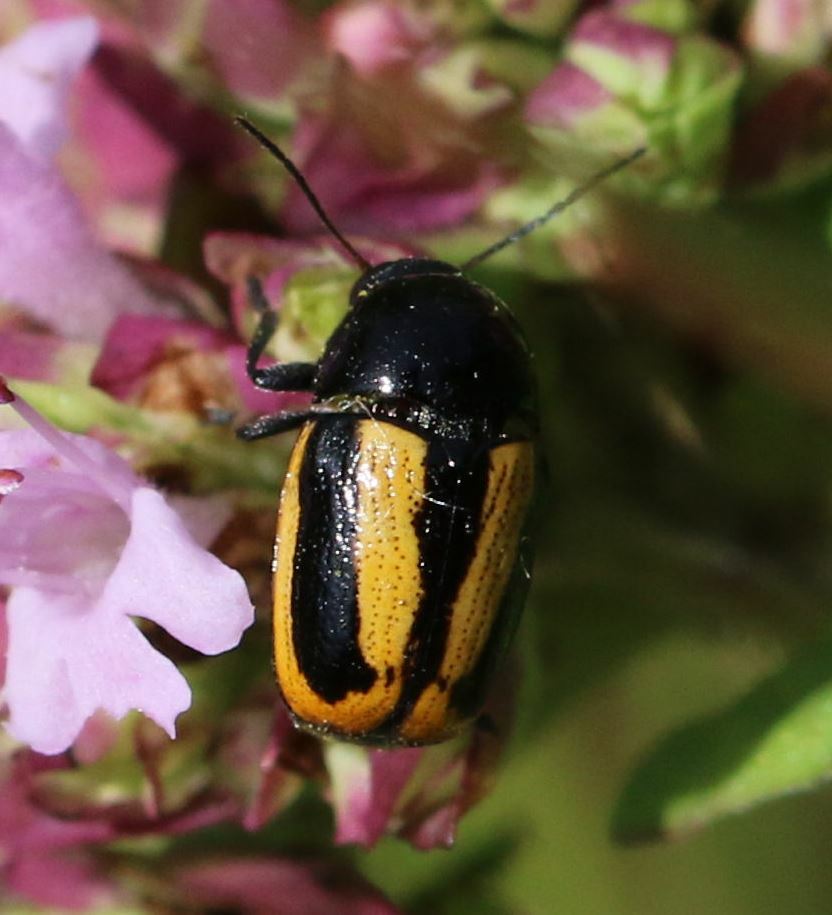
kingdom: Animalia
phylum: Arthropoda
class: Insecta
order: Coleoptera
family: Chrysomelidae
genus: Acalymma
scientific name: Acalymma vittatum
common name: Striped cucumber beetle
